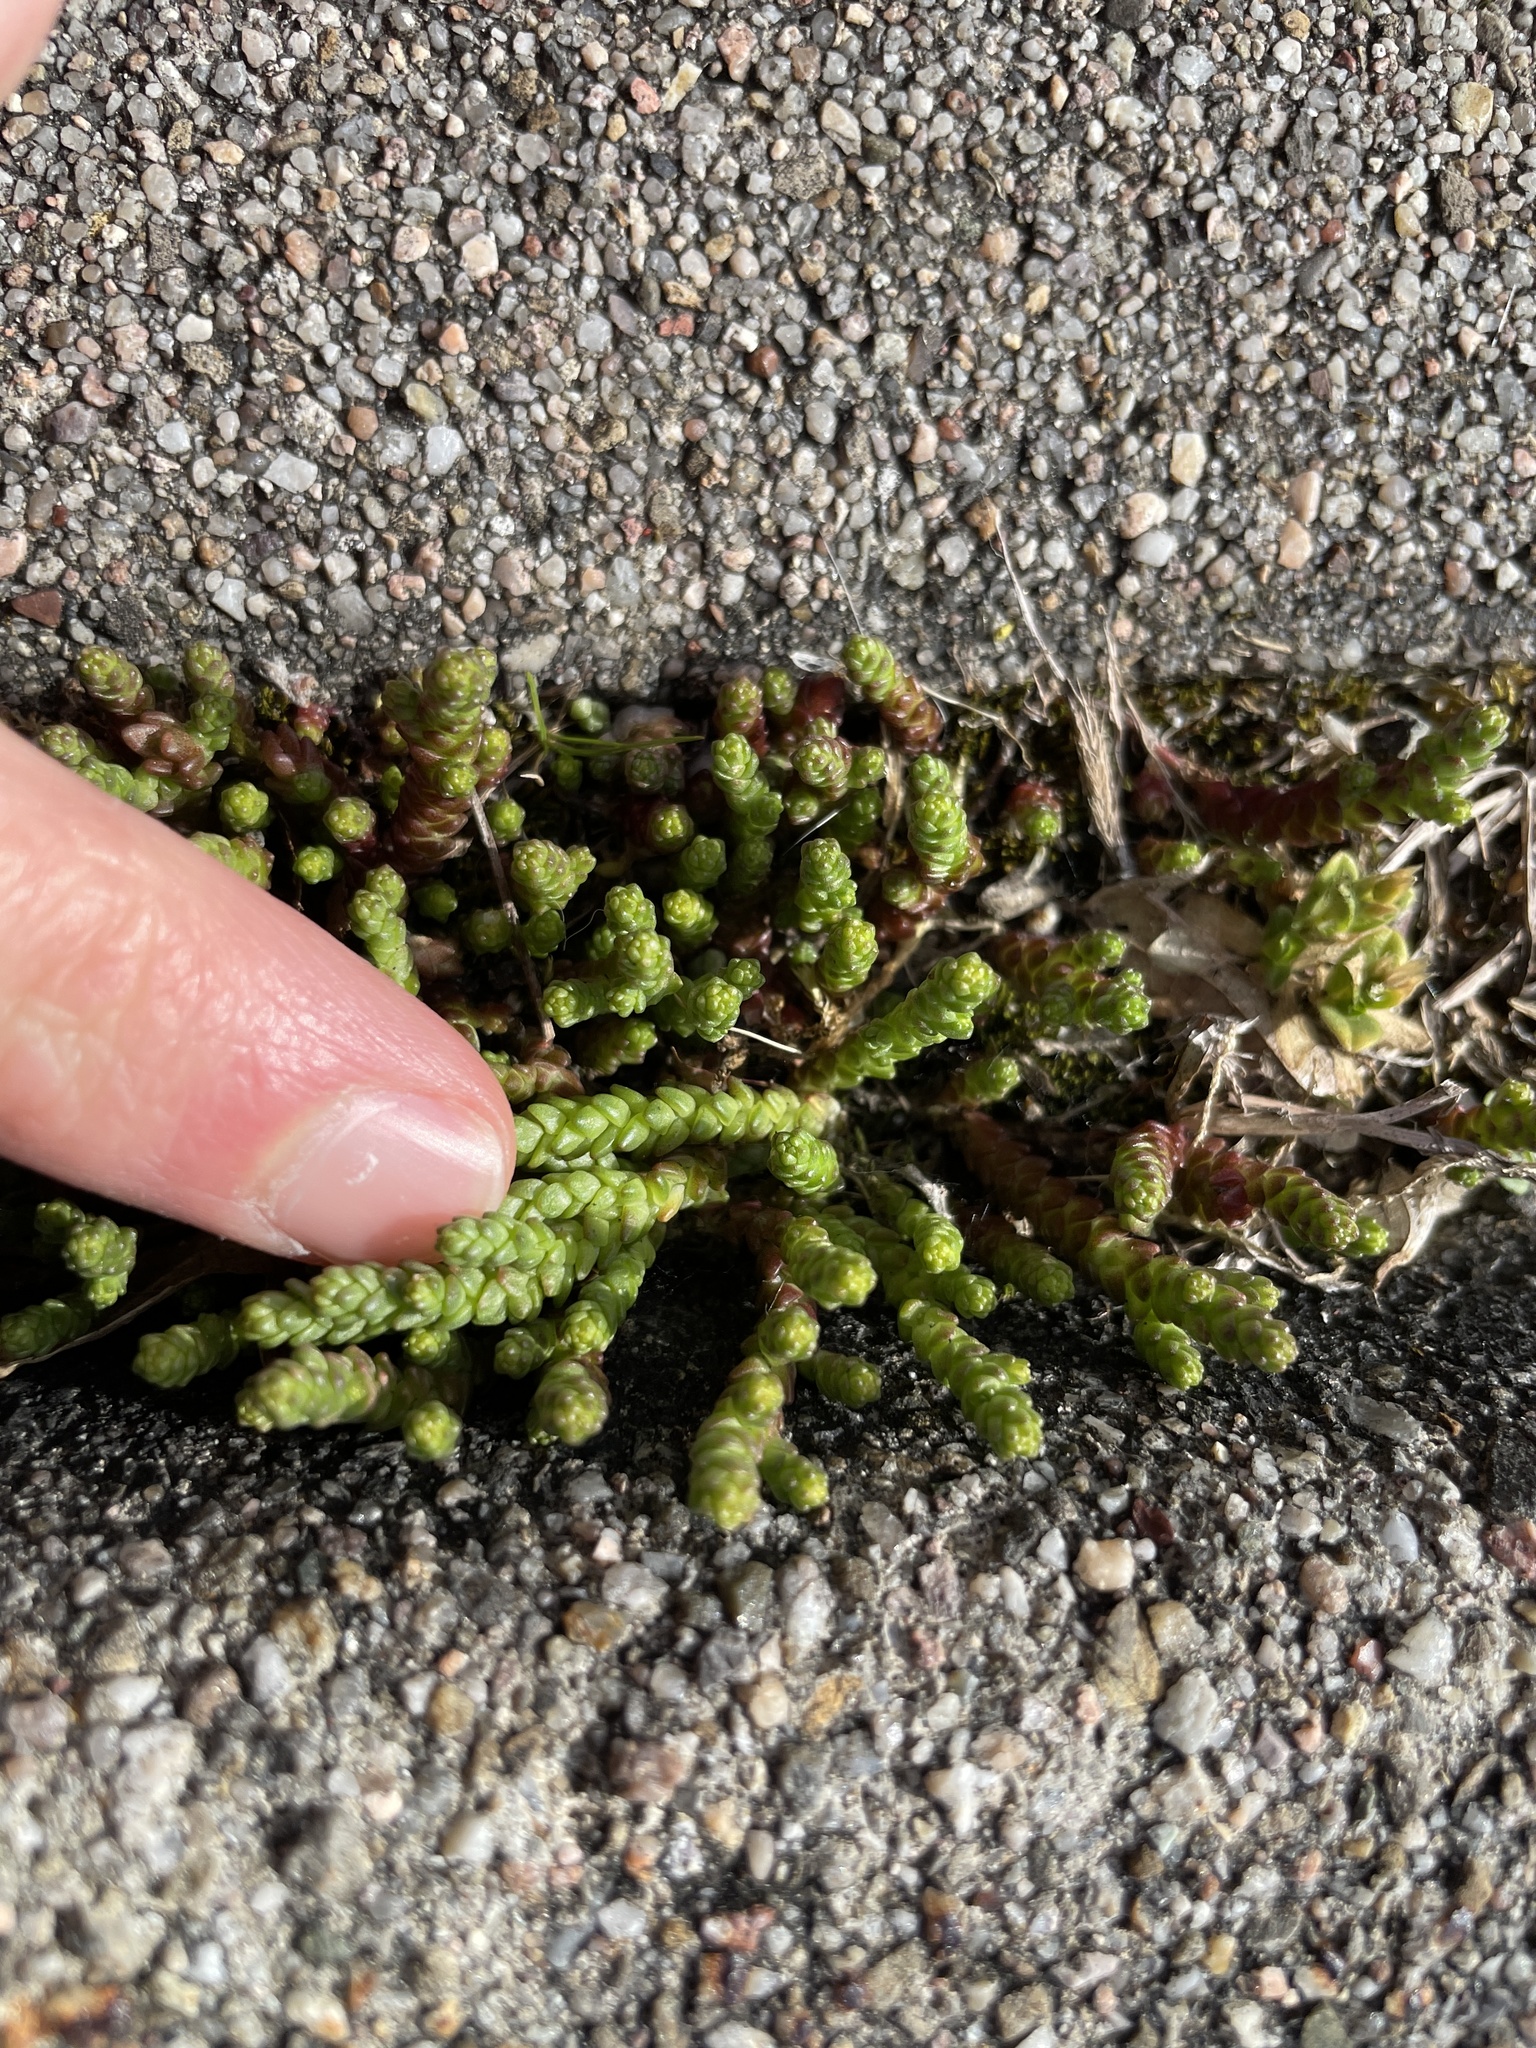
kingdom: Plantae
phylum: Tracheophyta
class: Magnoliopsida
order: Saxifragales
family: Crassulaceae
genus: Sedum
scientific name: Sedum acre
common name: Biting stonecrop
